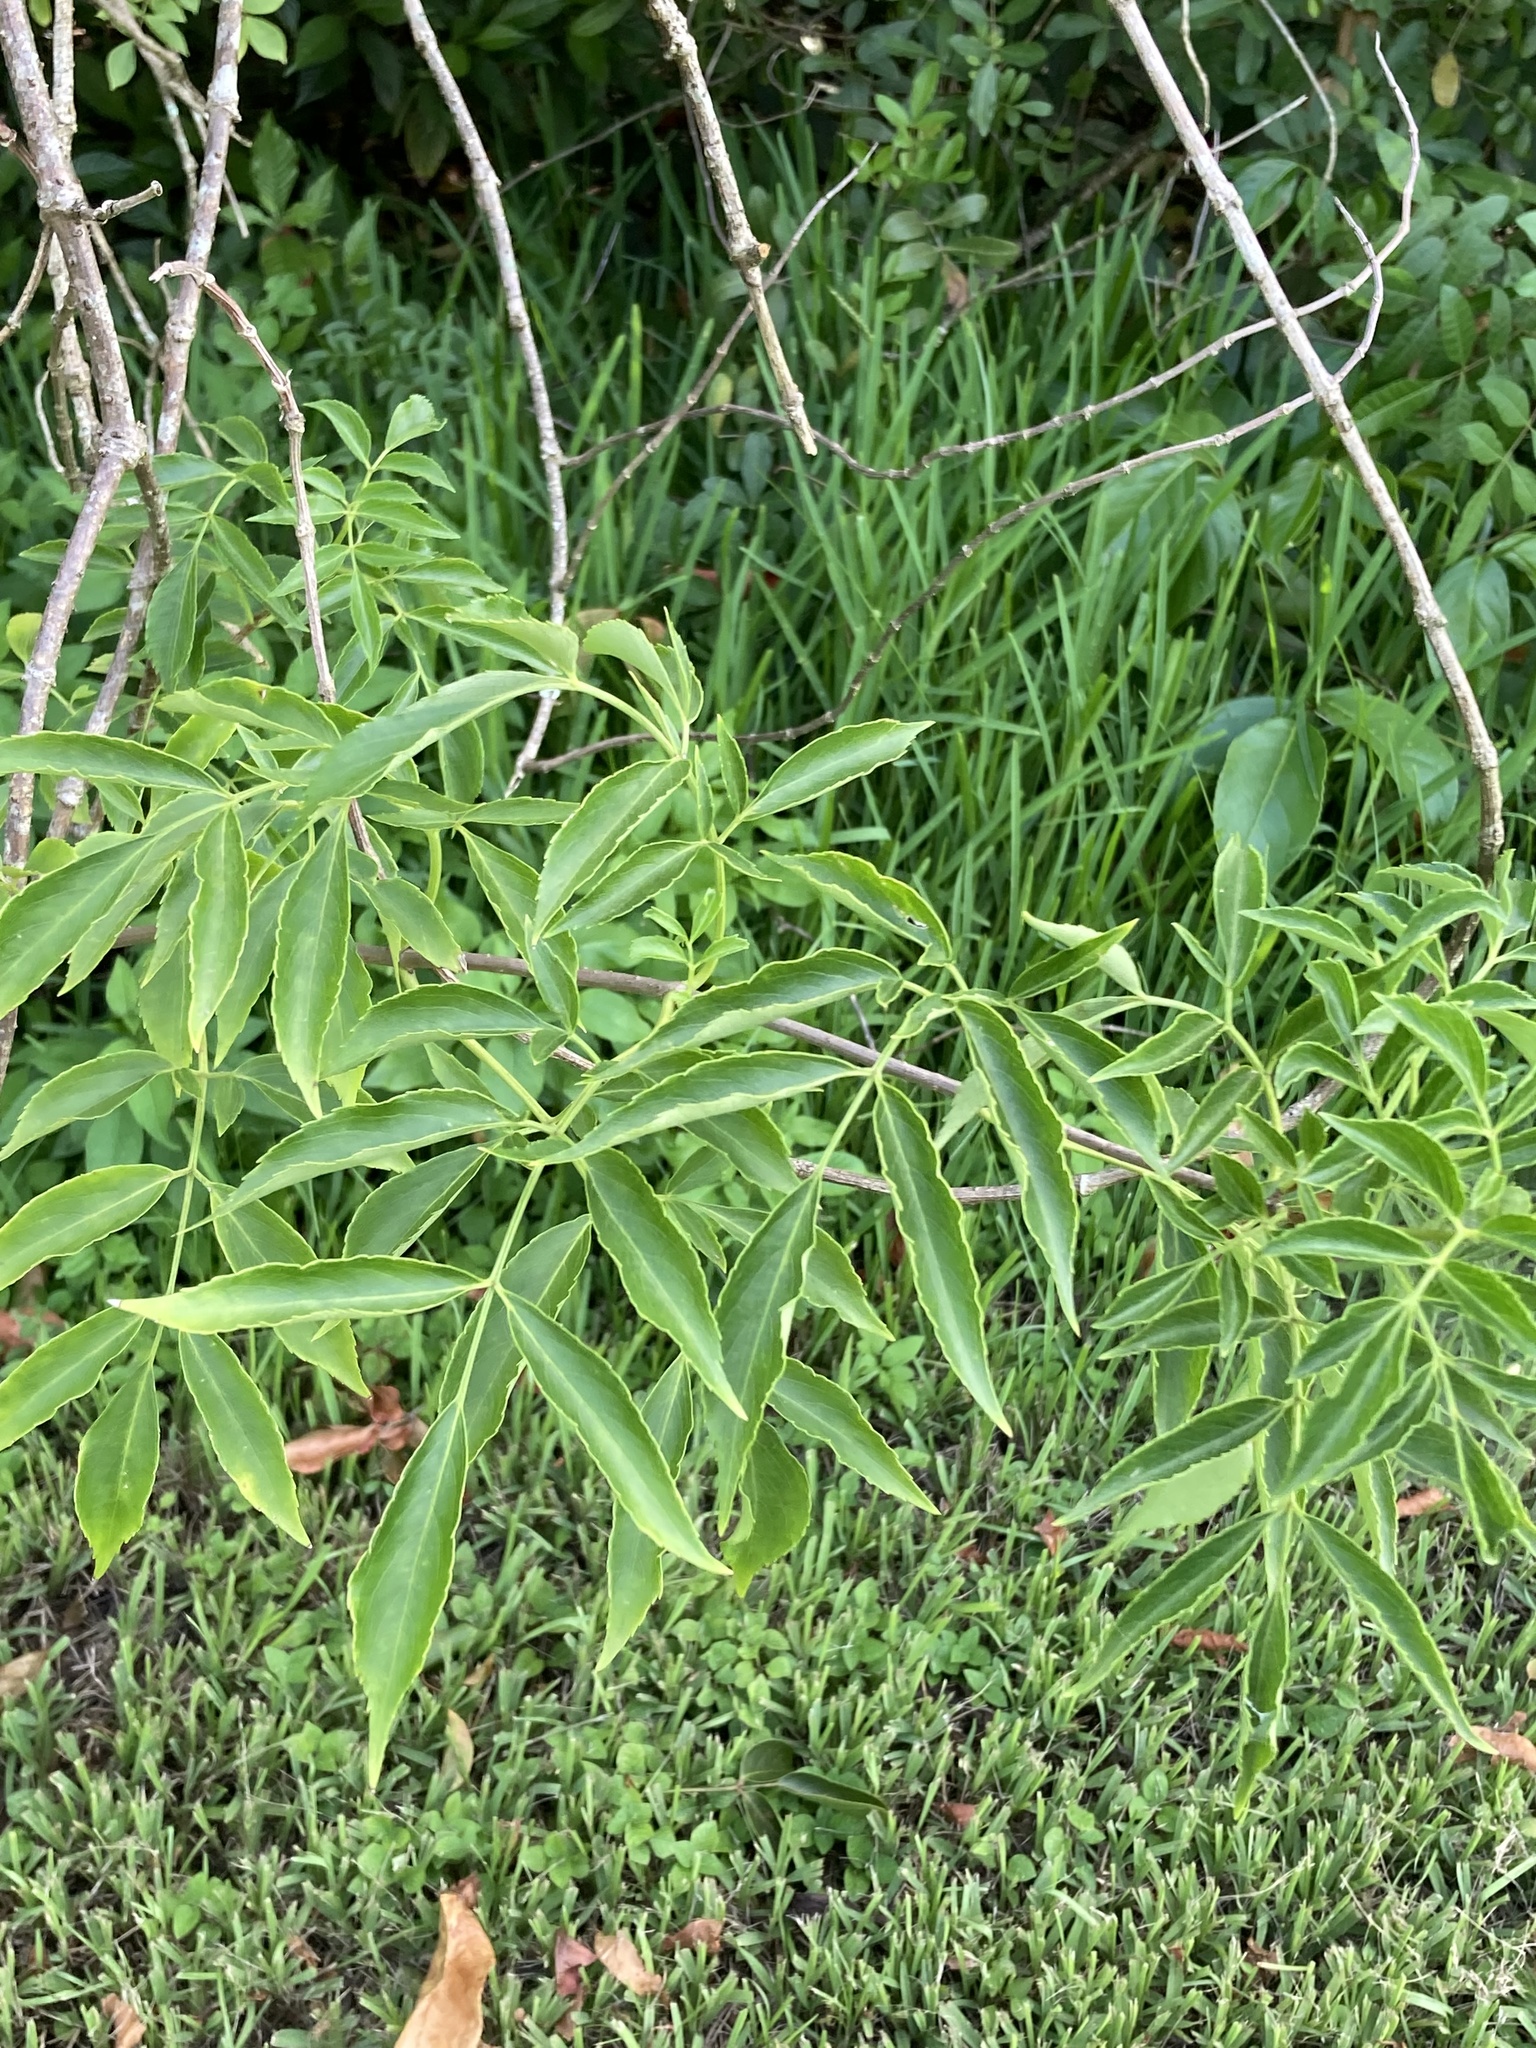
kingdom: Plantae
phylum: Tracheophyta
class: Magnoliopsida
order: Dipsacales
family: Viburnaceae
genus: Sambucus
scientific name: Sambucus canadensis
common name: American elder
